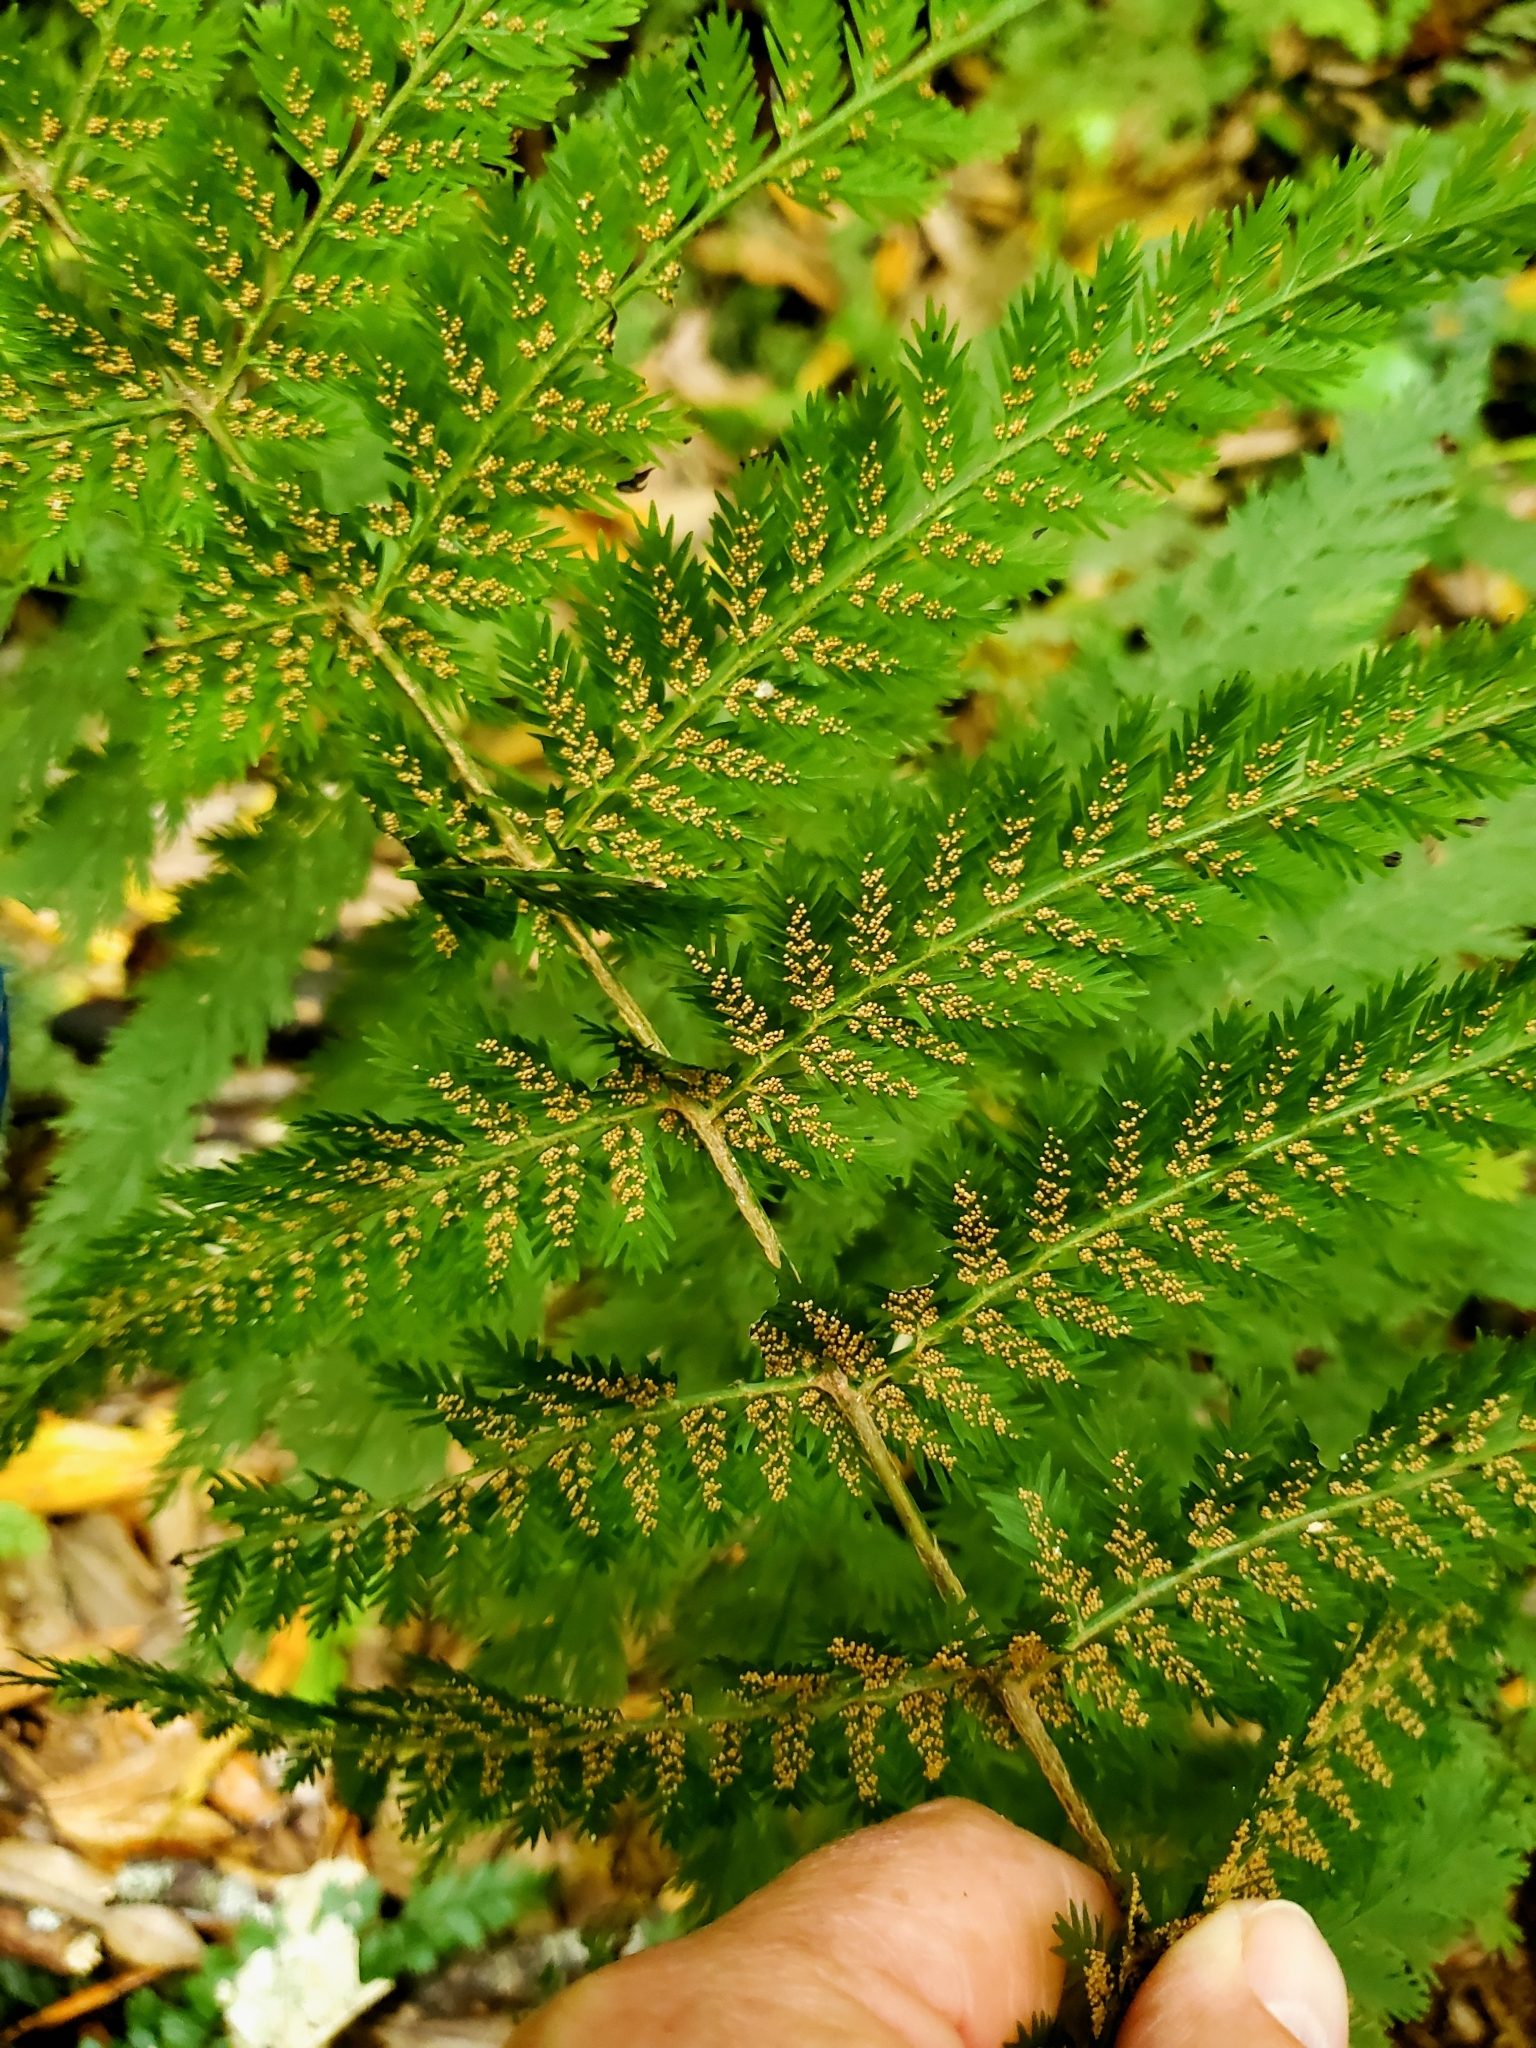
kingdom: Plantae
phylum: Tracheophyta
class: Polypodiopsida
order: Osmundales
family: Osmundaceae
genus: Leptopteris
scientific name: Leptopteris hymenophylloides
